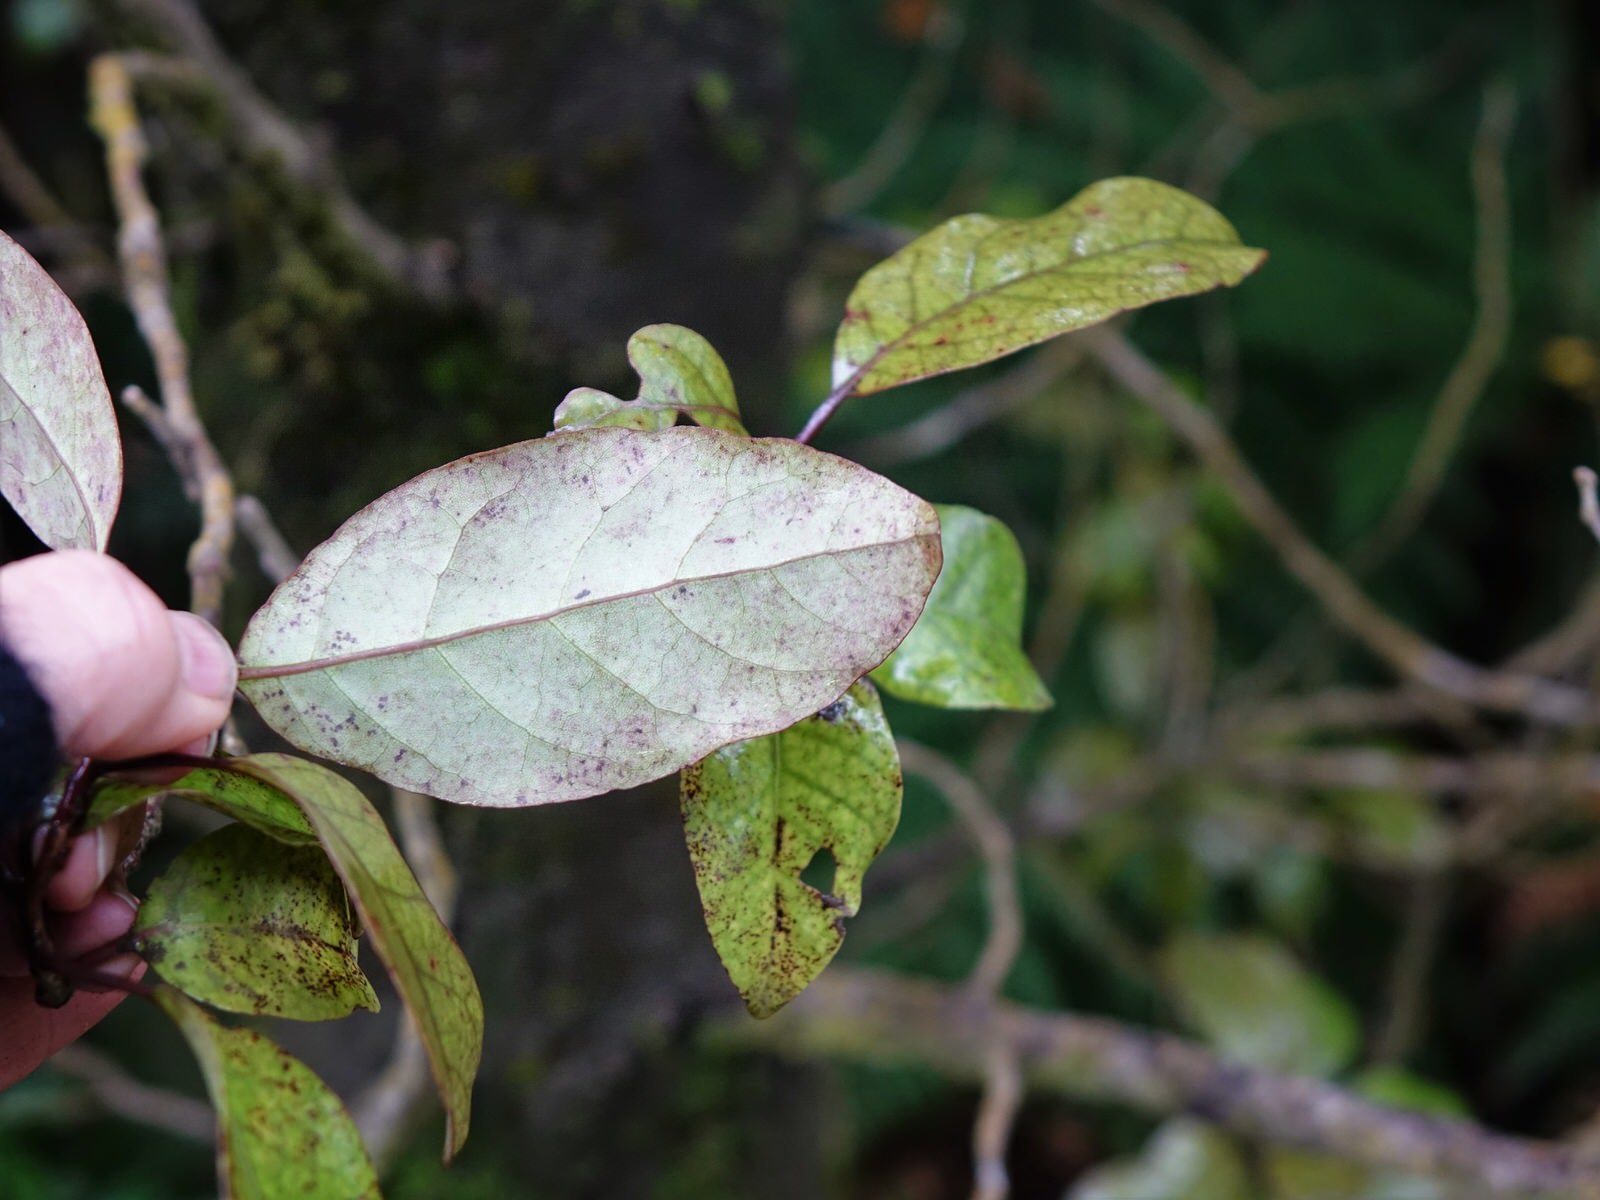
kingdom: Plantae
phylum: Tracheophyta
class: Magnoliopsida
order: Laurales
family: Lauraceae
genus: Litsea
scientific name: Litsea calicaris
